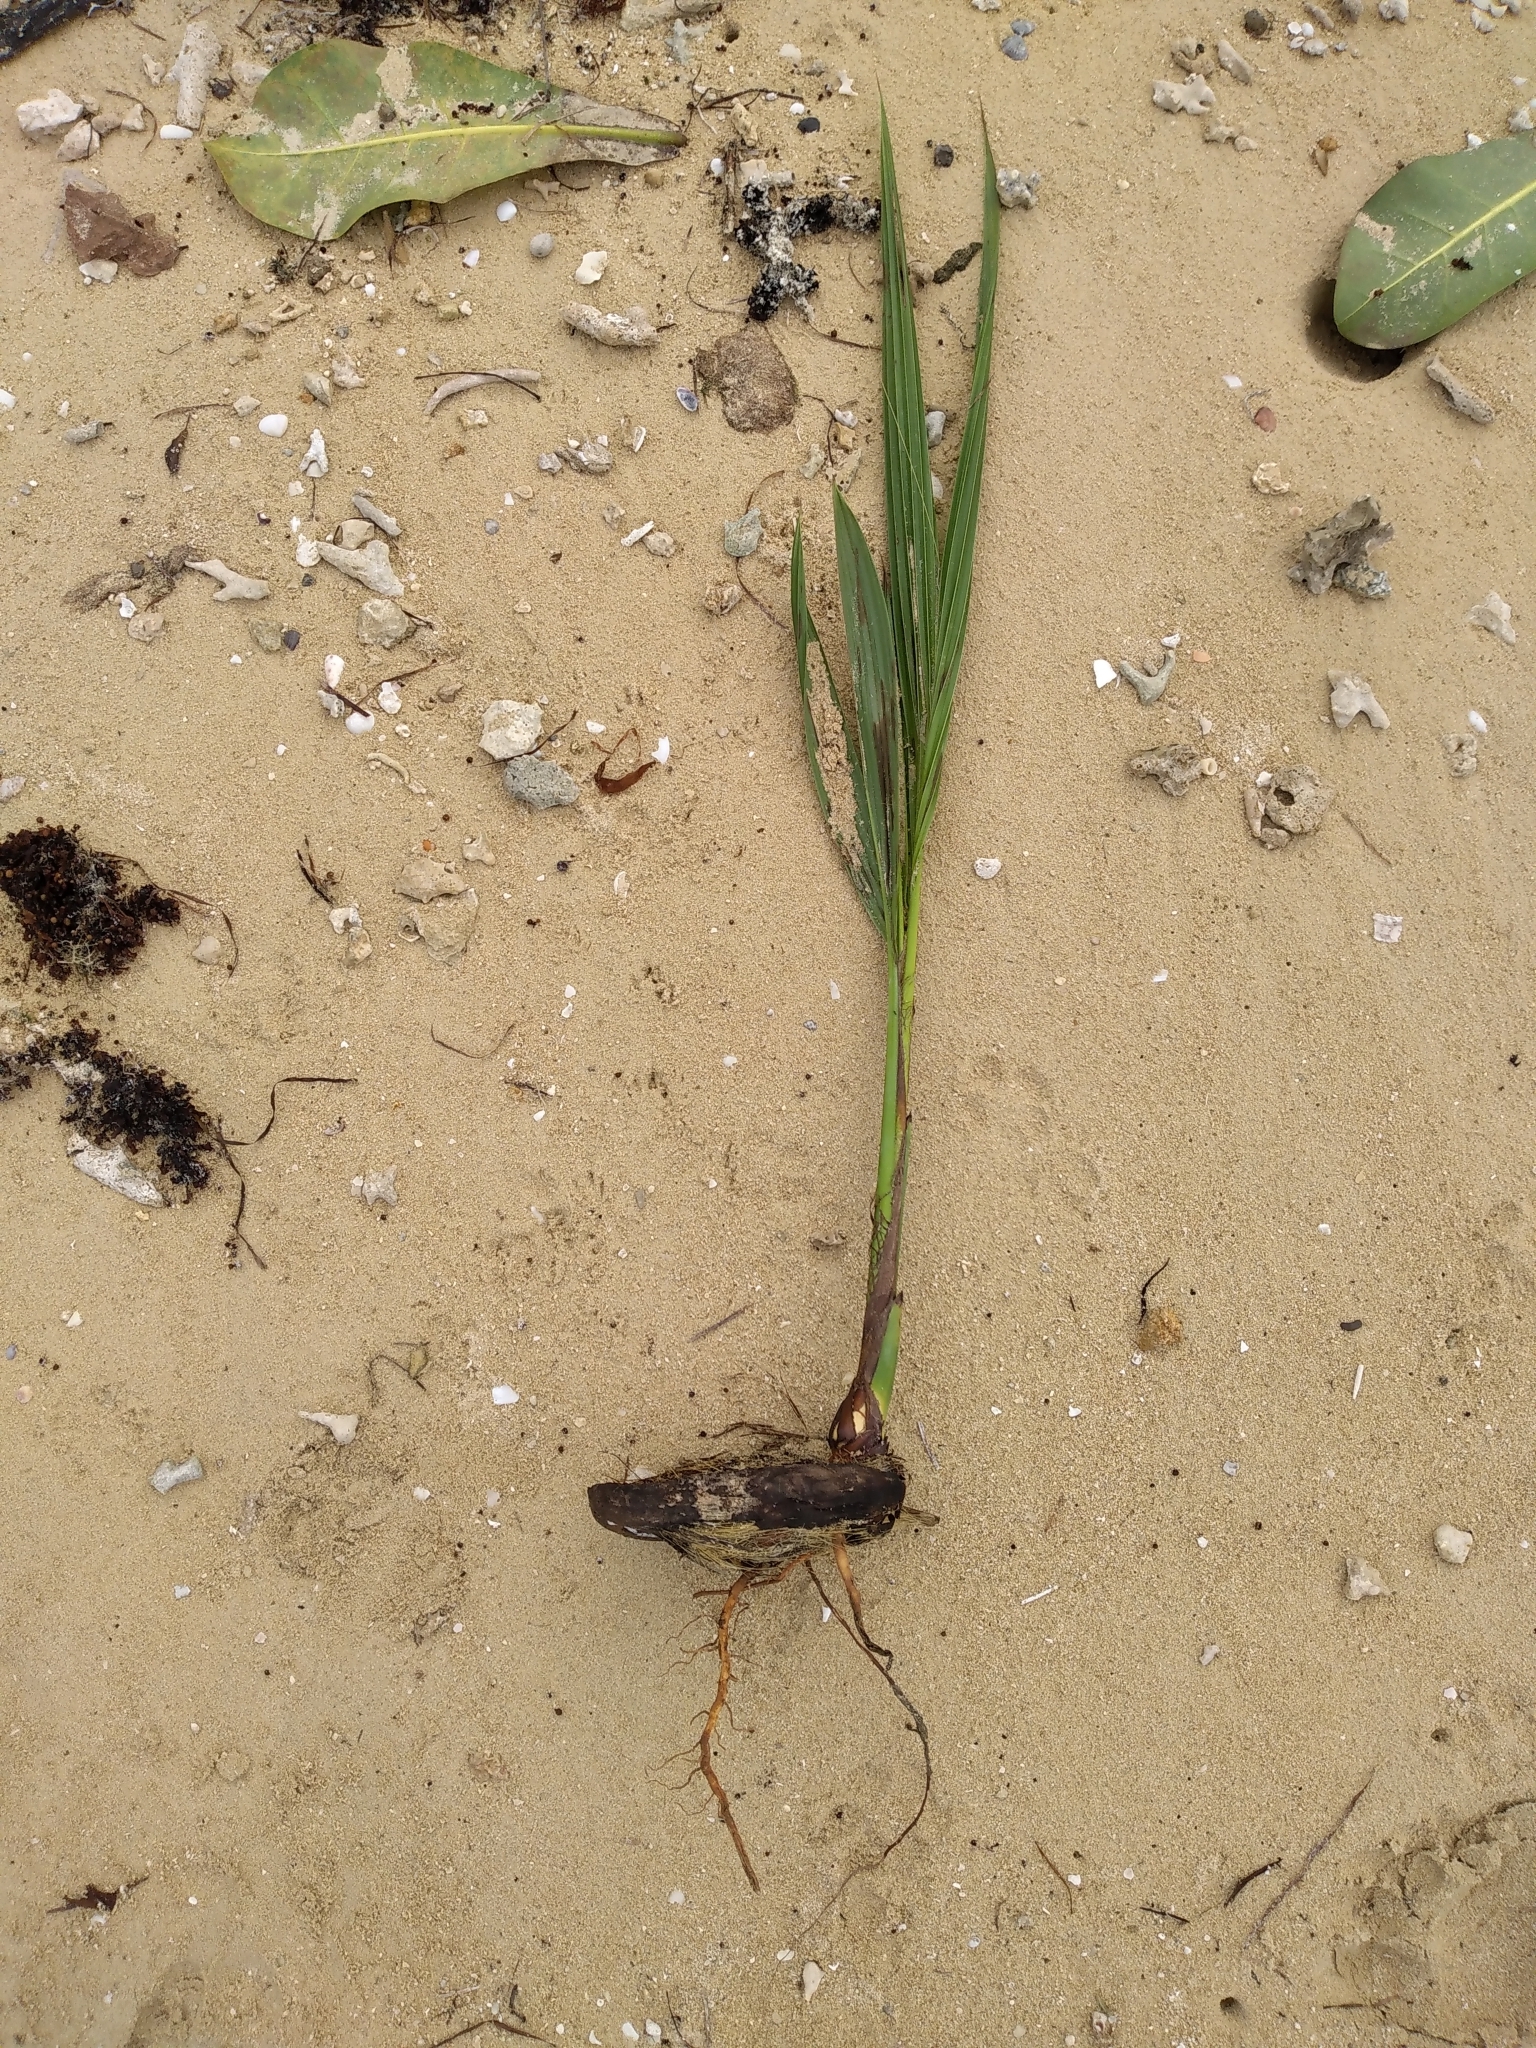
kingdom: Plantae
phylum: Tracheophyta
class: Liliopsida
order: Arecales
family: Arecaceae
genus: Cocos
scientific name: Cocos nucifera
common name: Coconut palm
